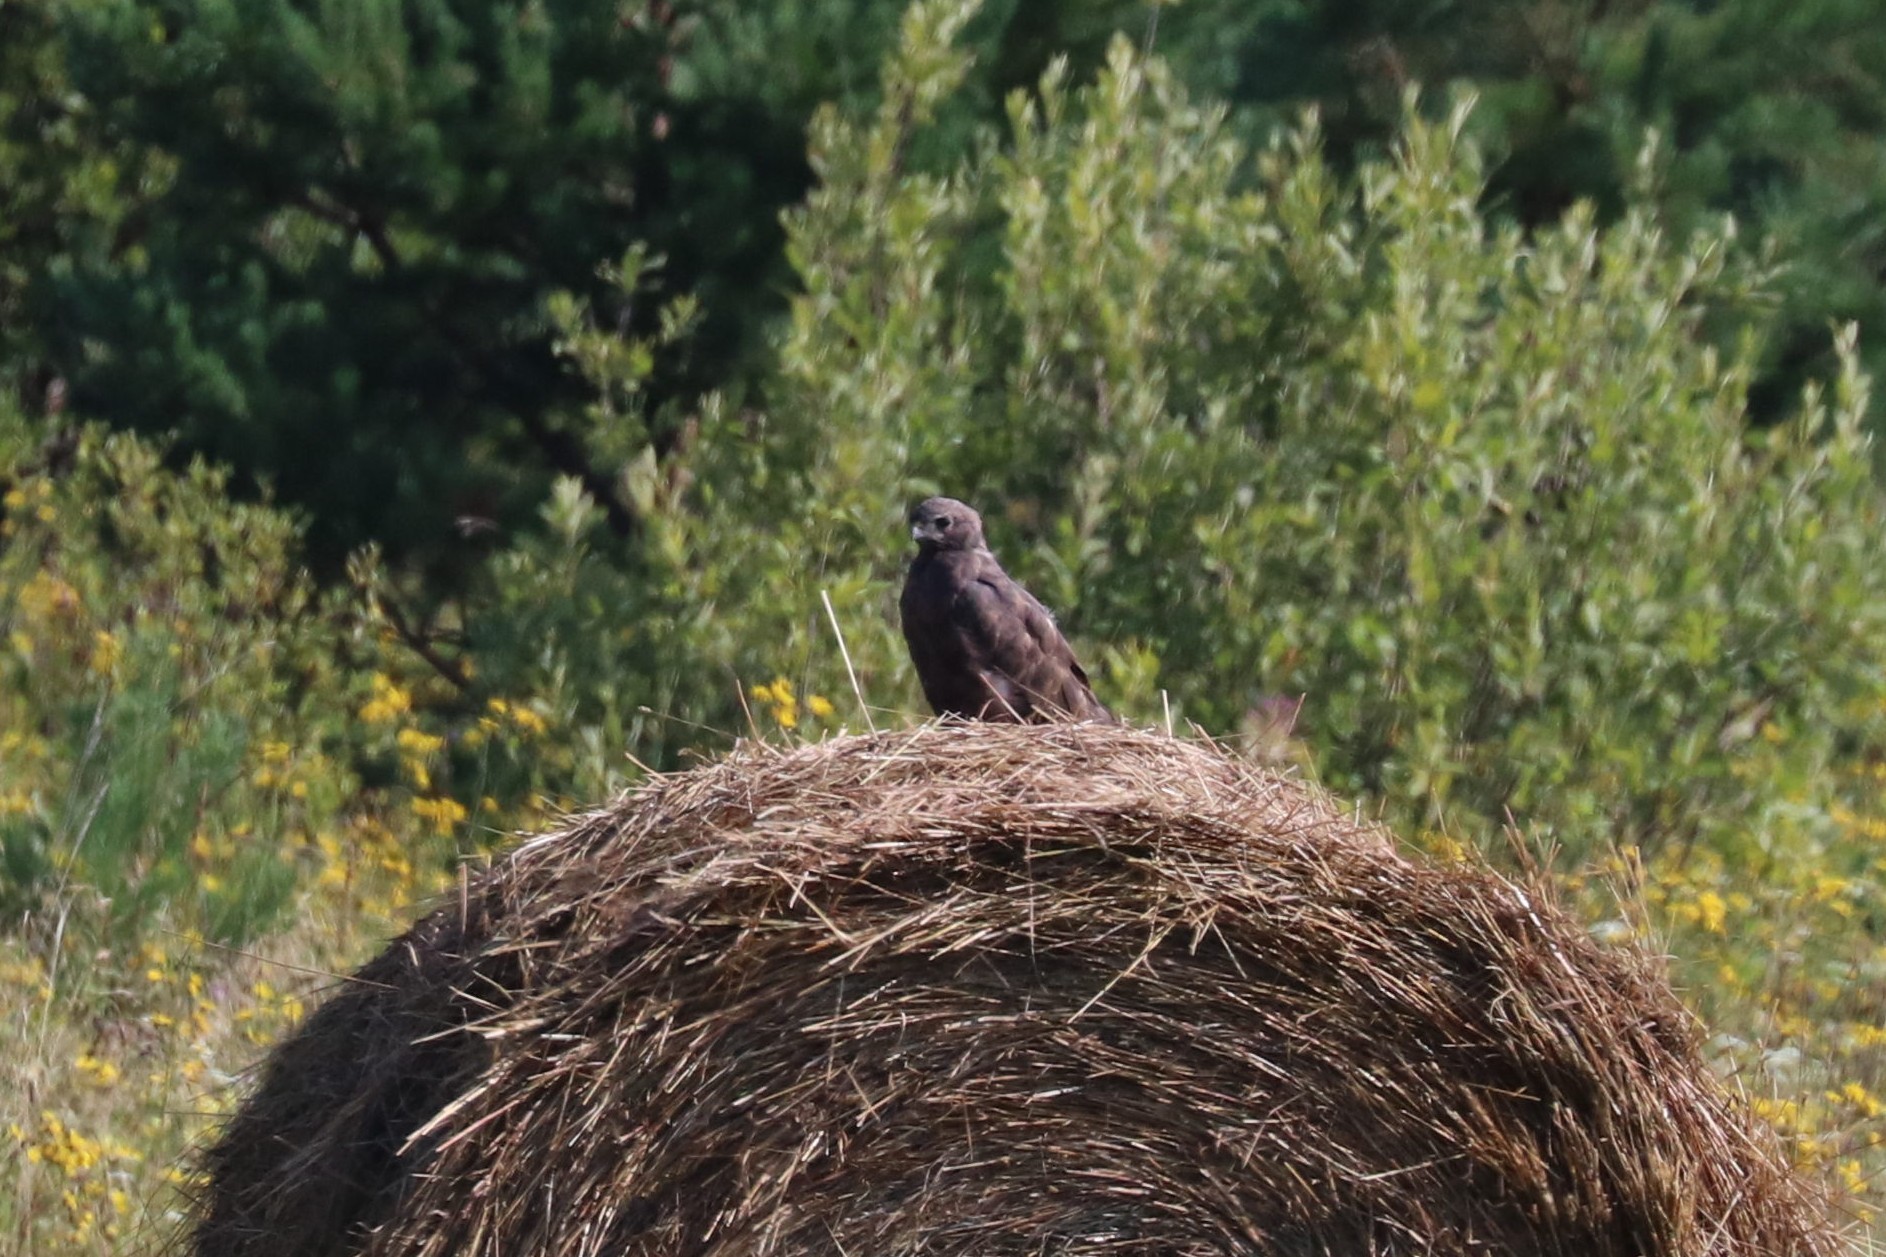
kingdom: Animalia
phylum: Chordata
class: Aves
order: Accipitriformes
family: Accipitridae
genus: Buteo
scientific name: Buteo buteo
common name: Common buzzard
